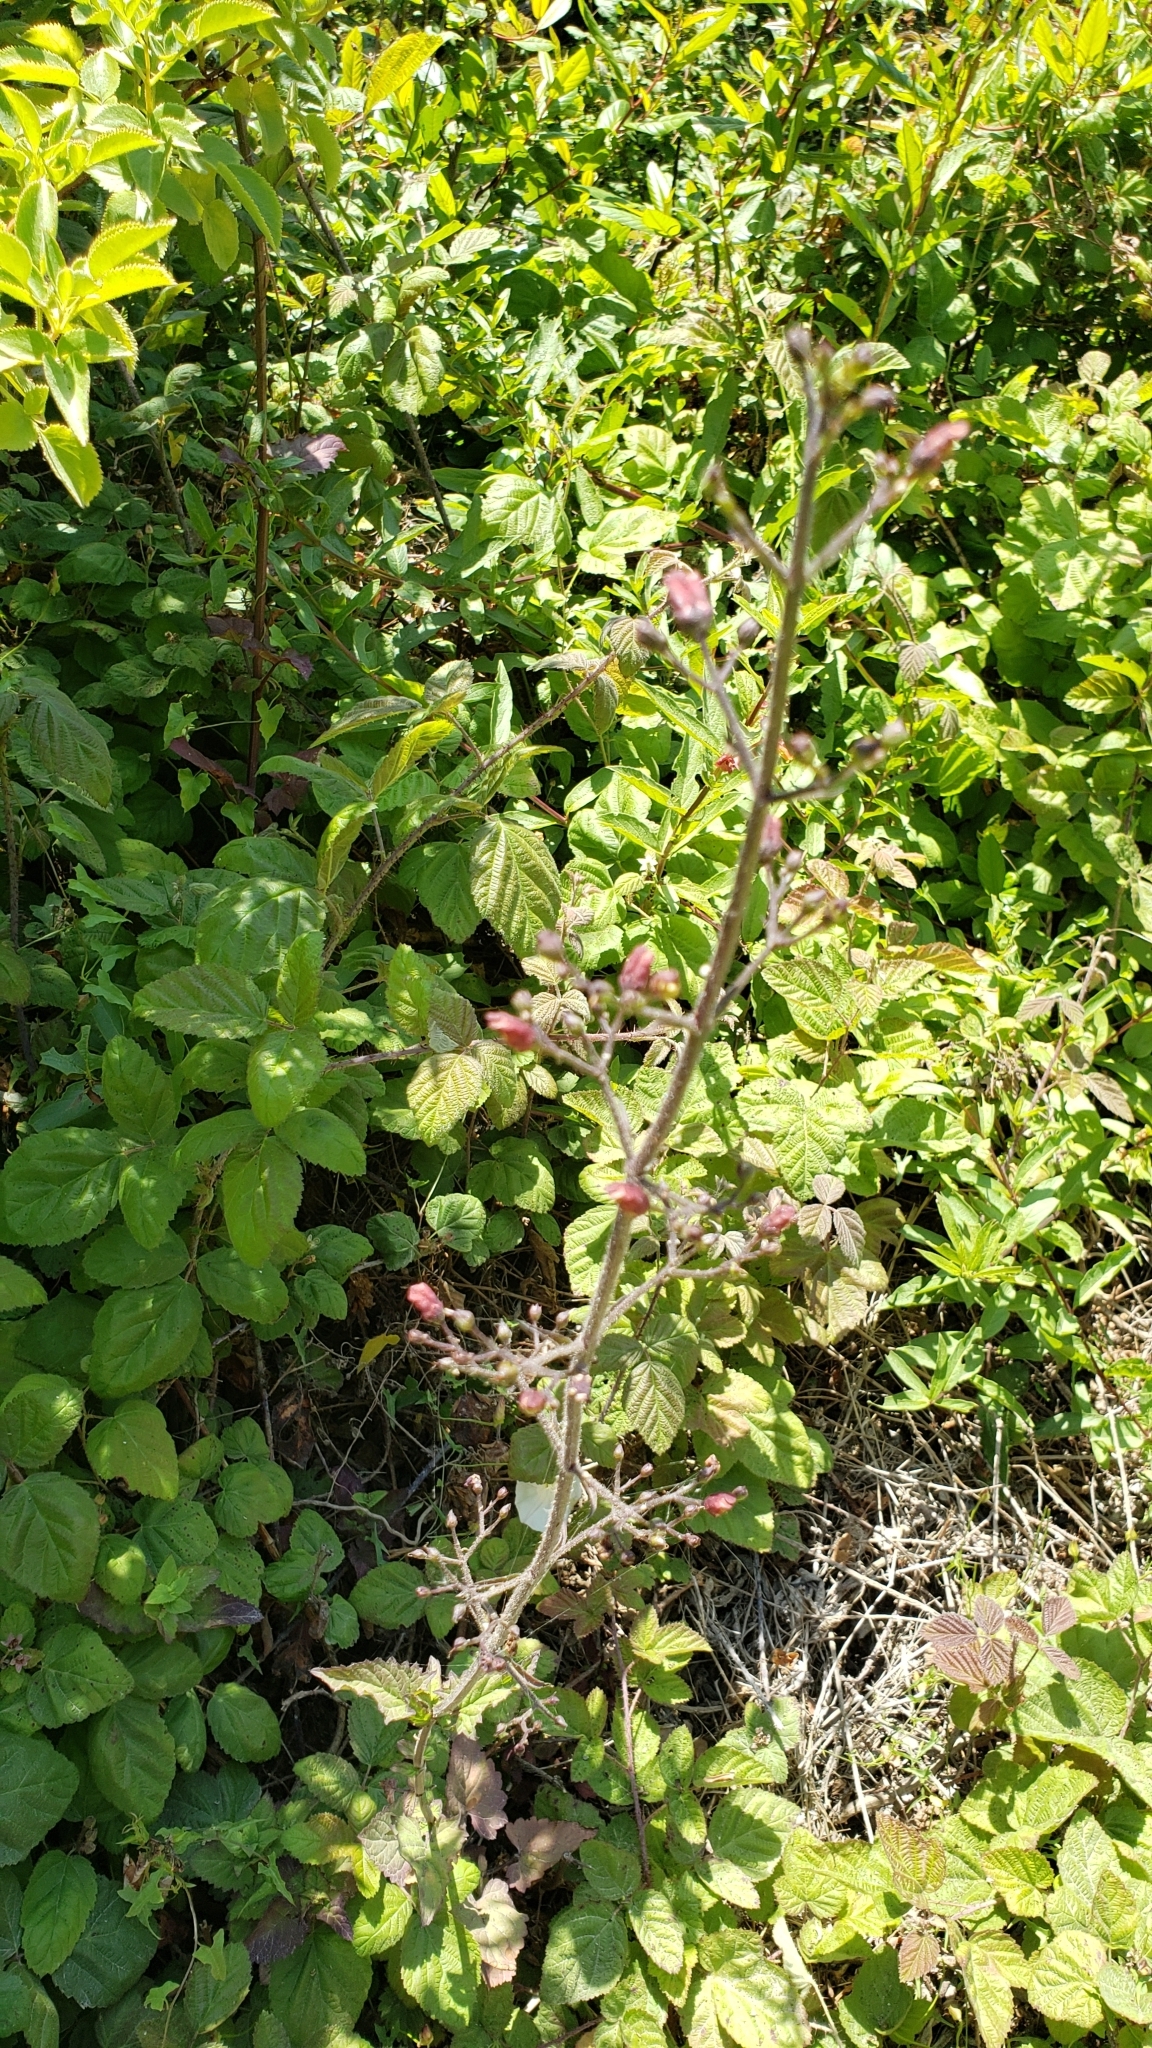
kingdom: Plantae
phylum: Tracheophyta
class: Magnoliopsida
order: Lamiales
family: Scrophulariaceae
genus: Scrophularia
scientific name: Scrophularia californica
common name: California figwort
